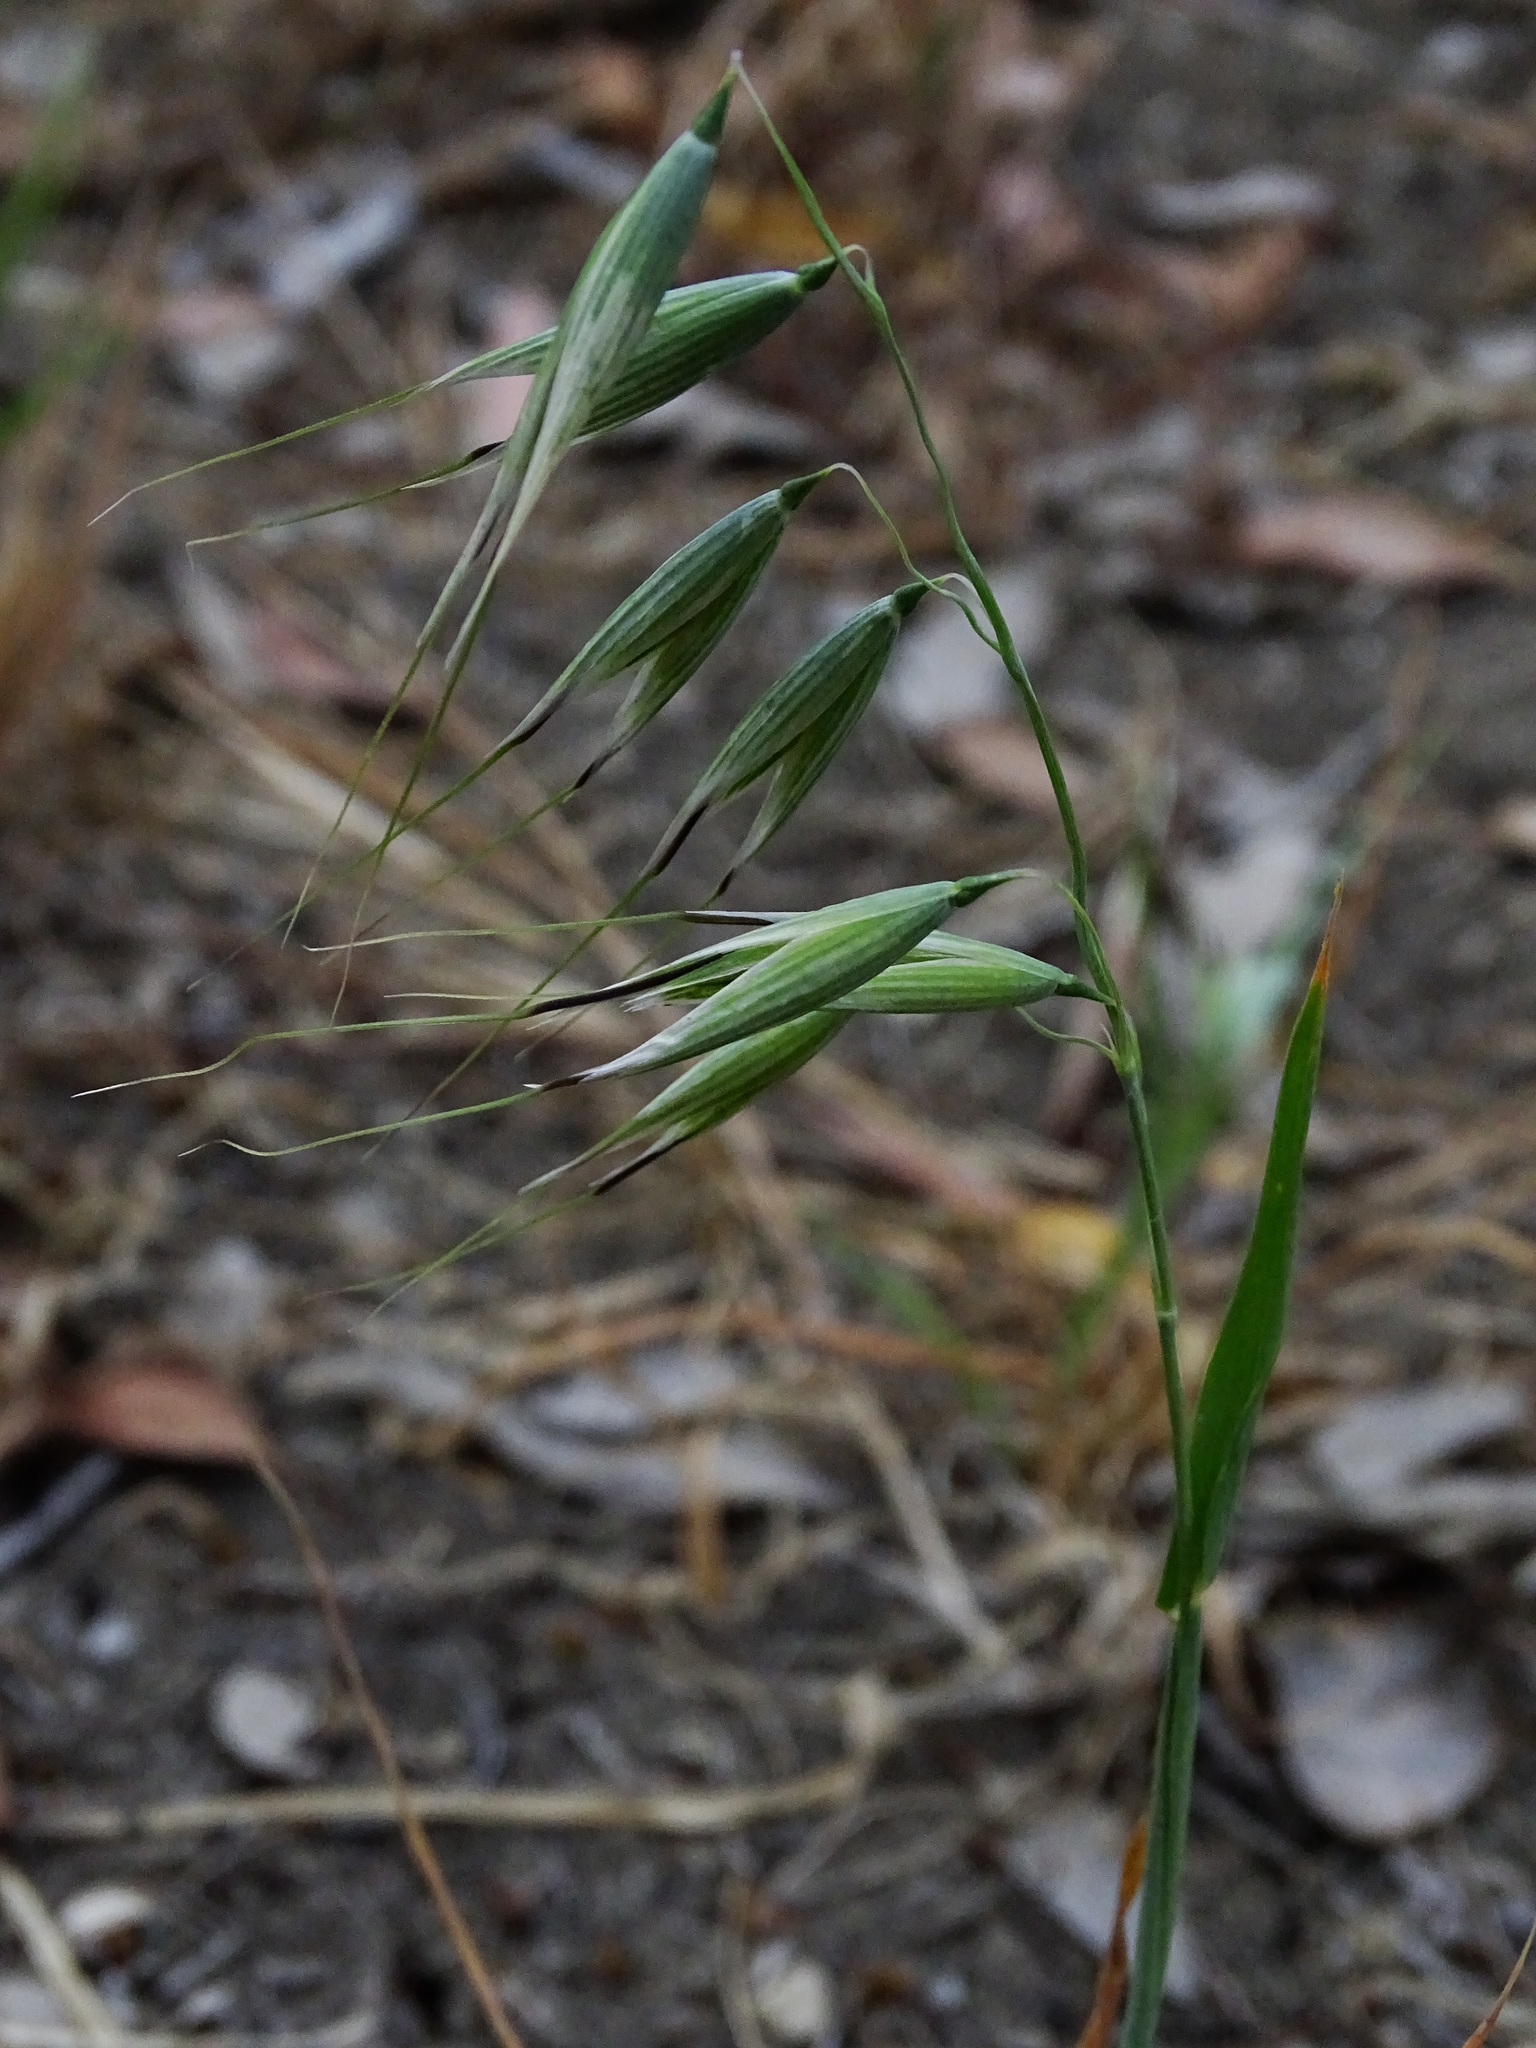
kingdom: Plantae
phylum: Tracheophyta
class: Liliopsida
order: Poales
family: Poaceae
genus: Avena
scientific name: Avena fatua
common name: Wild oat
